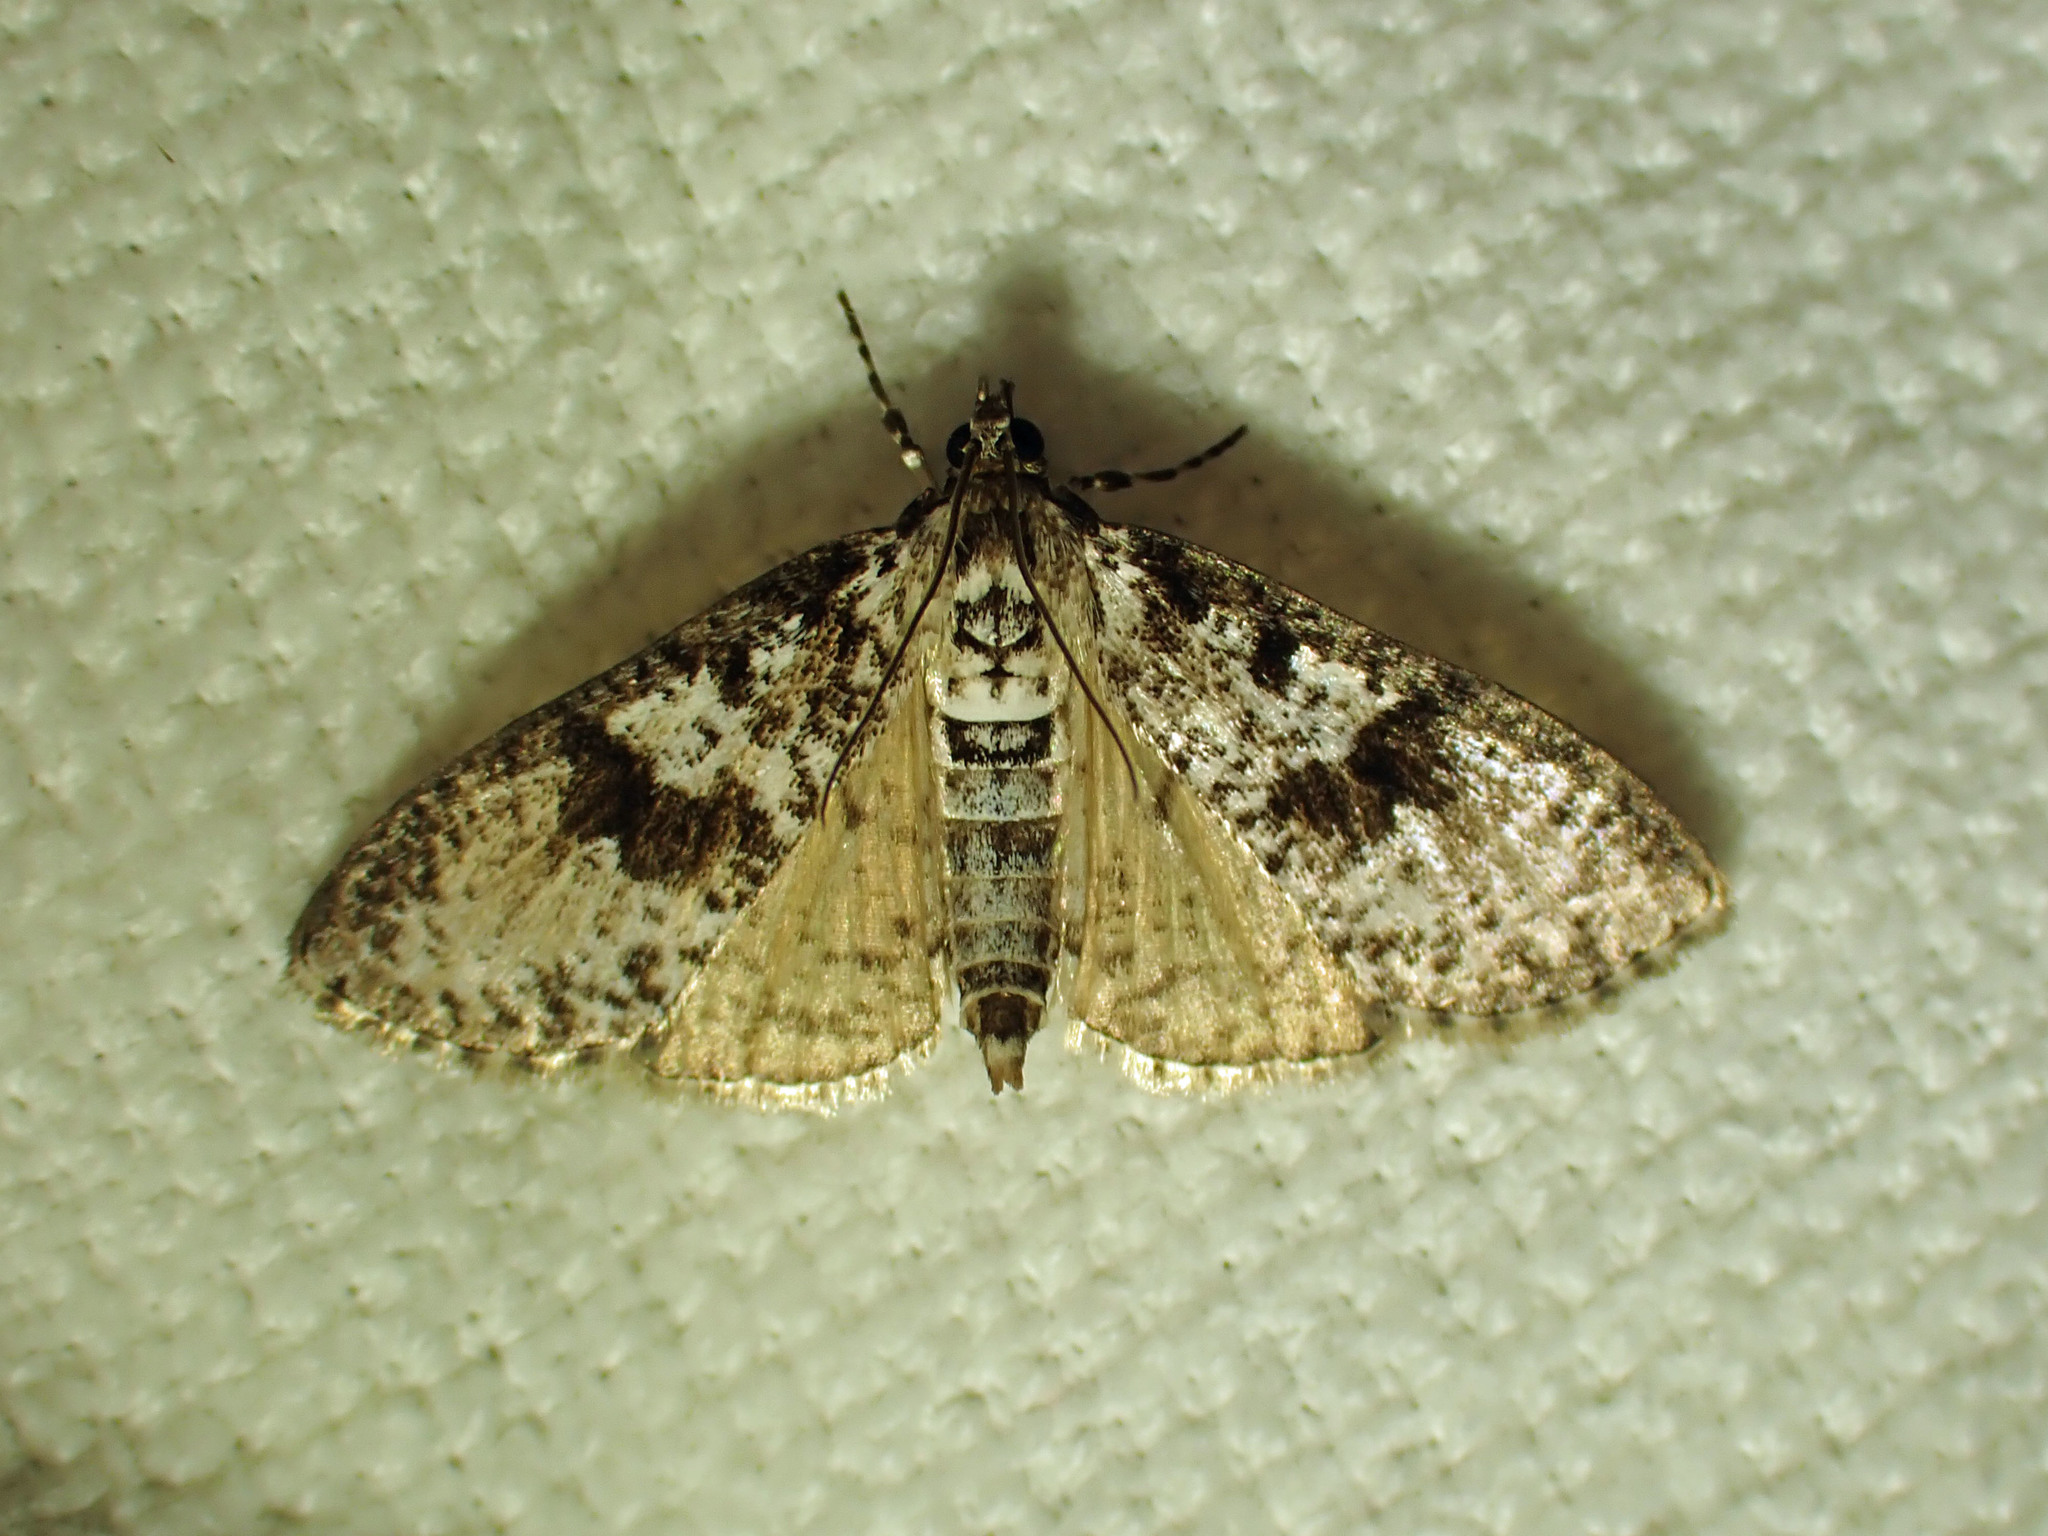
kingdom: Animalia
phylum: Arthropoda
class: Insecta
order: Lepidoptera
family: Crambidae
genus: Palpita
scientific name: Palpita magniferalis
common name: Splendid palpita moth
